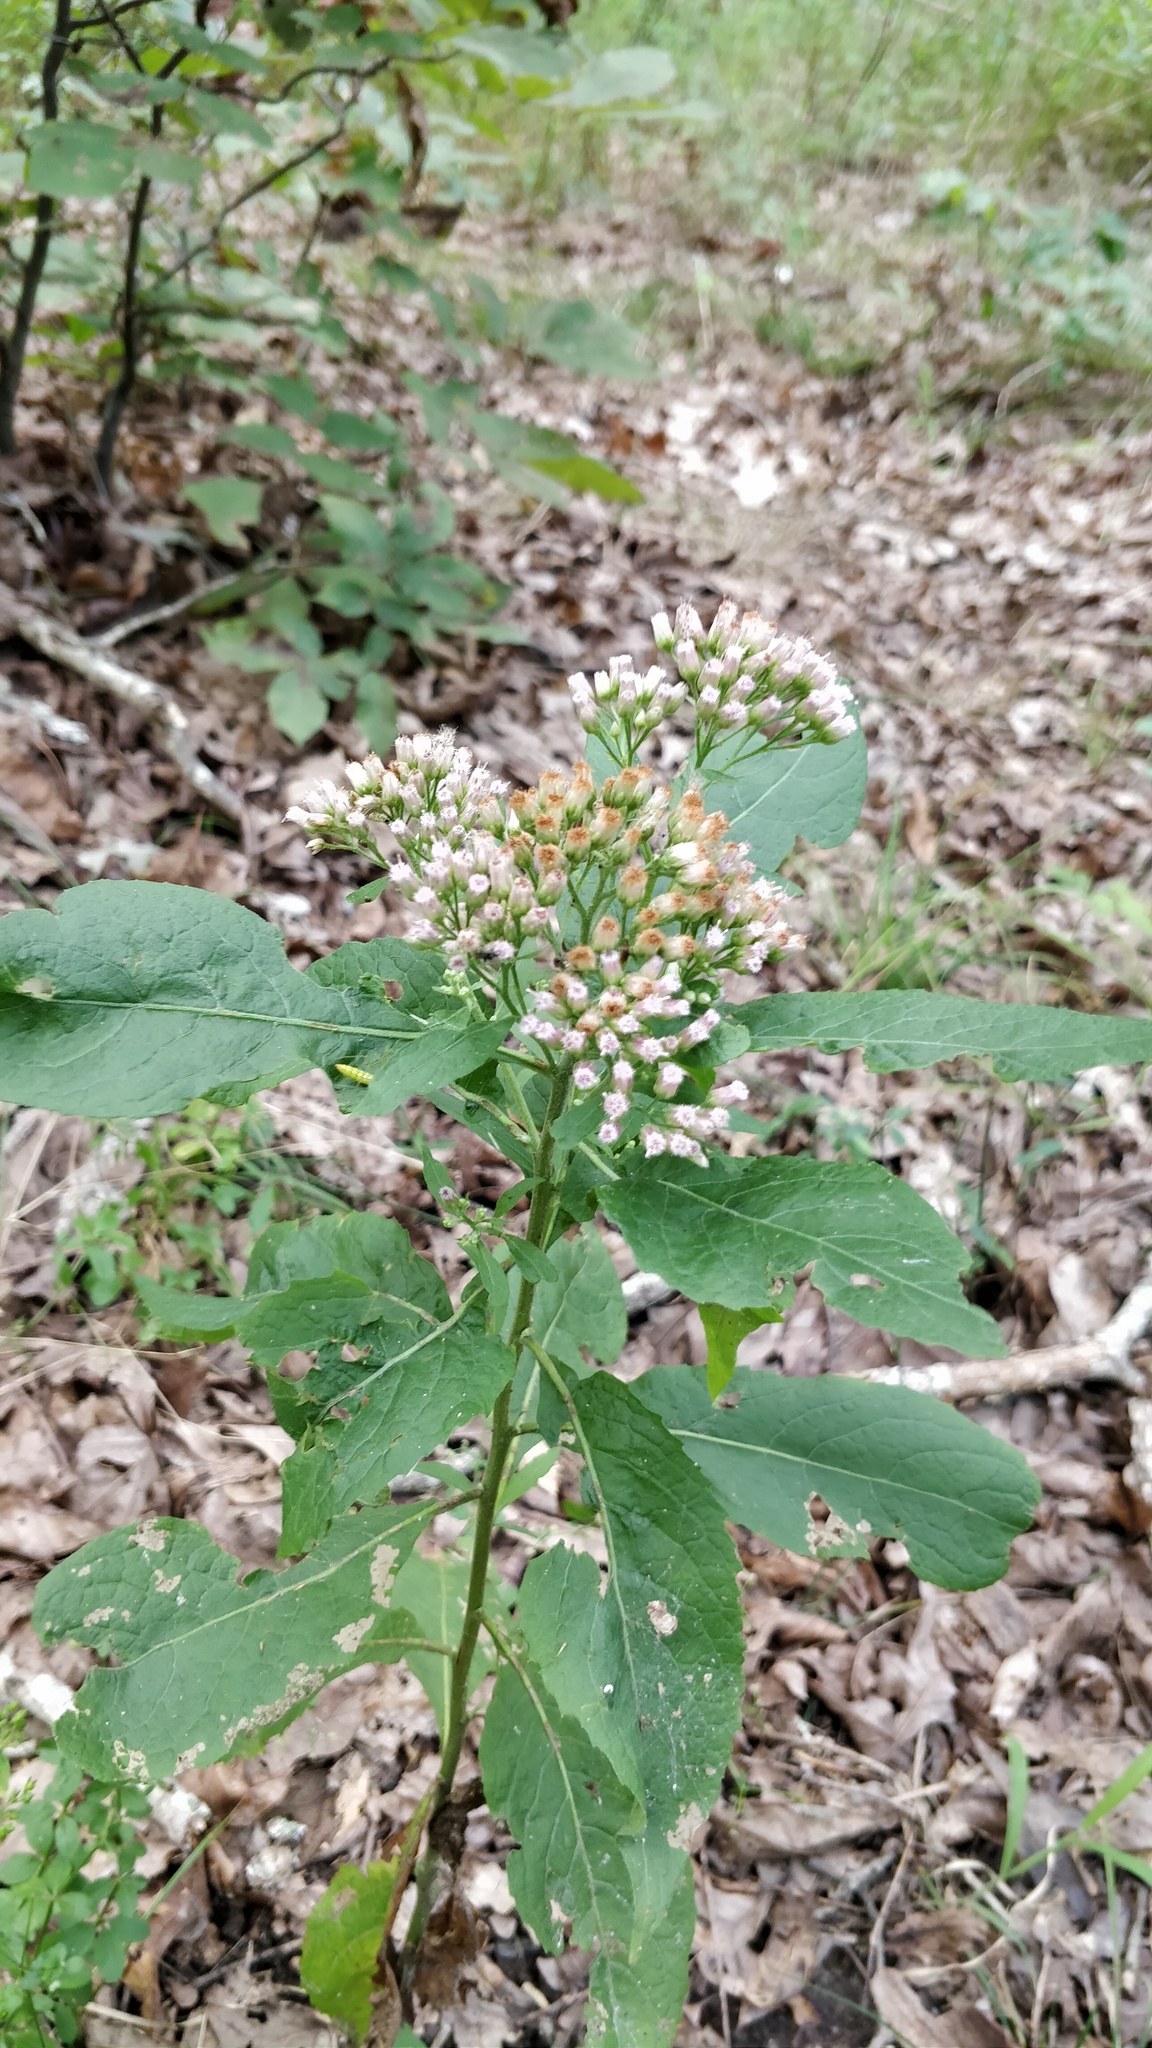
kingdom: Plantae
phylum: Tracheophyta
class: Magnoliopsida
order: Asterales
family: Asteraceae
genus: Pluchea
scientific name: Pluchea camphorata
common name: Camphor pluchea
